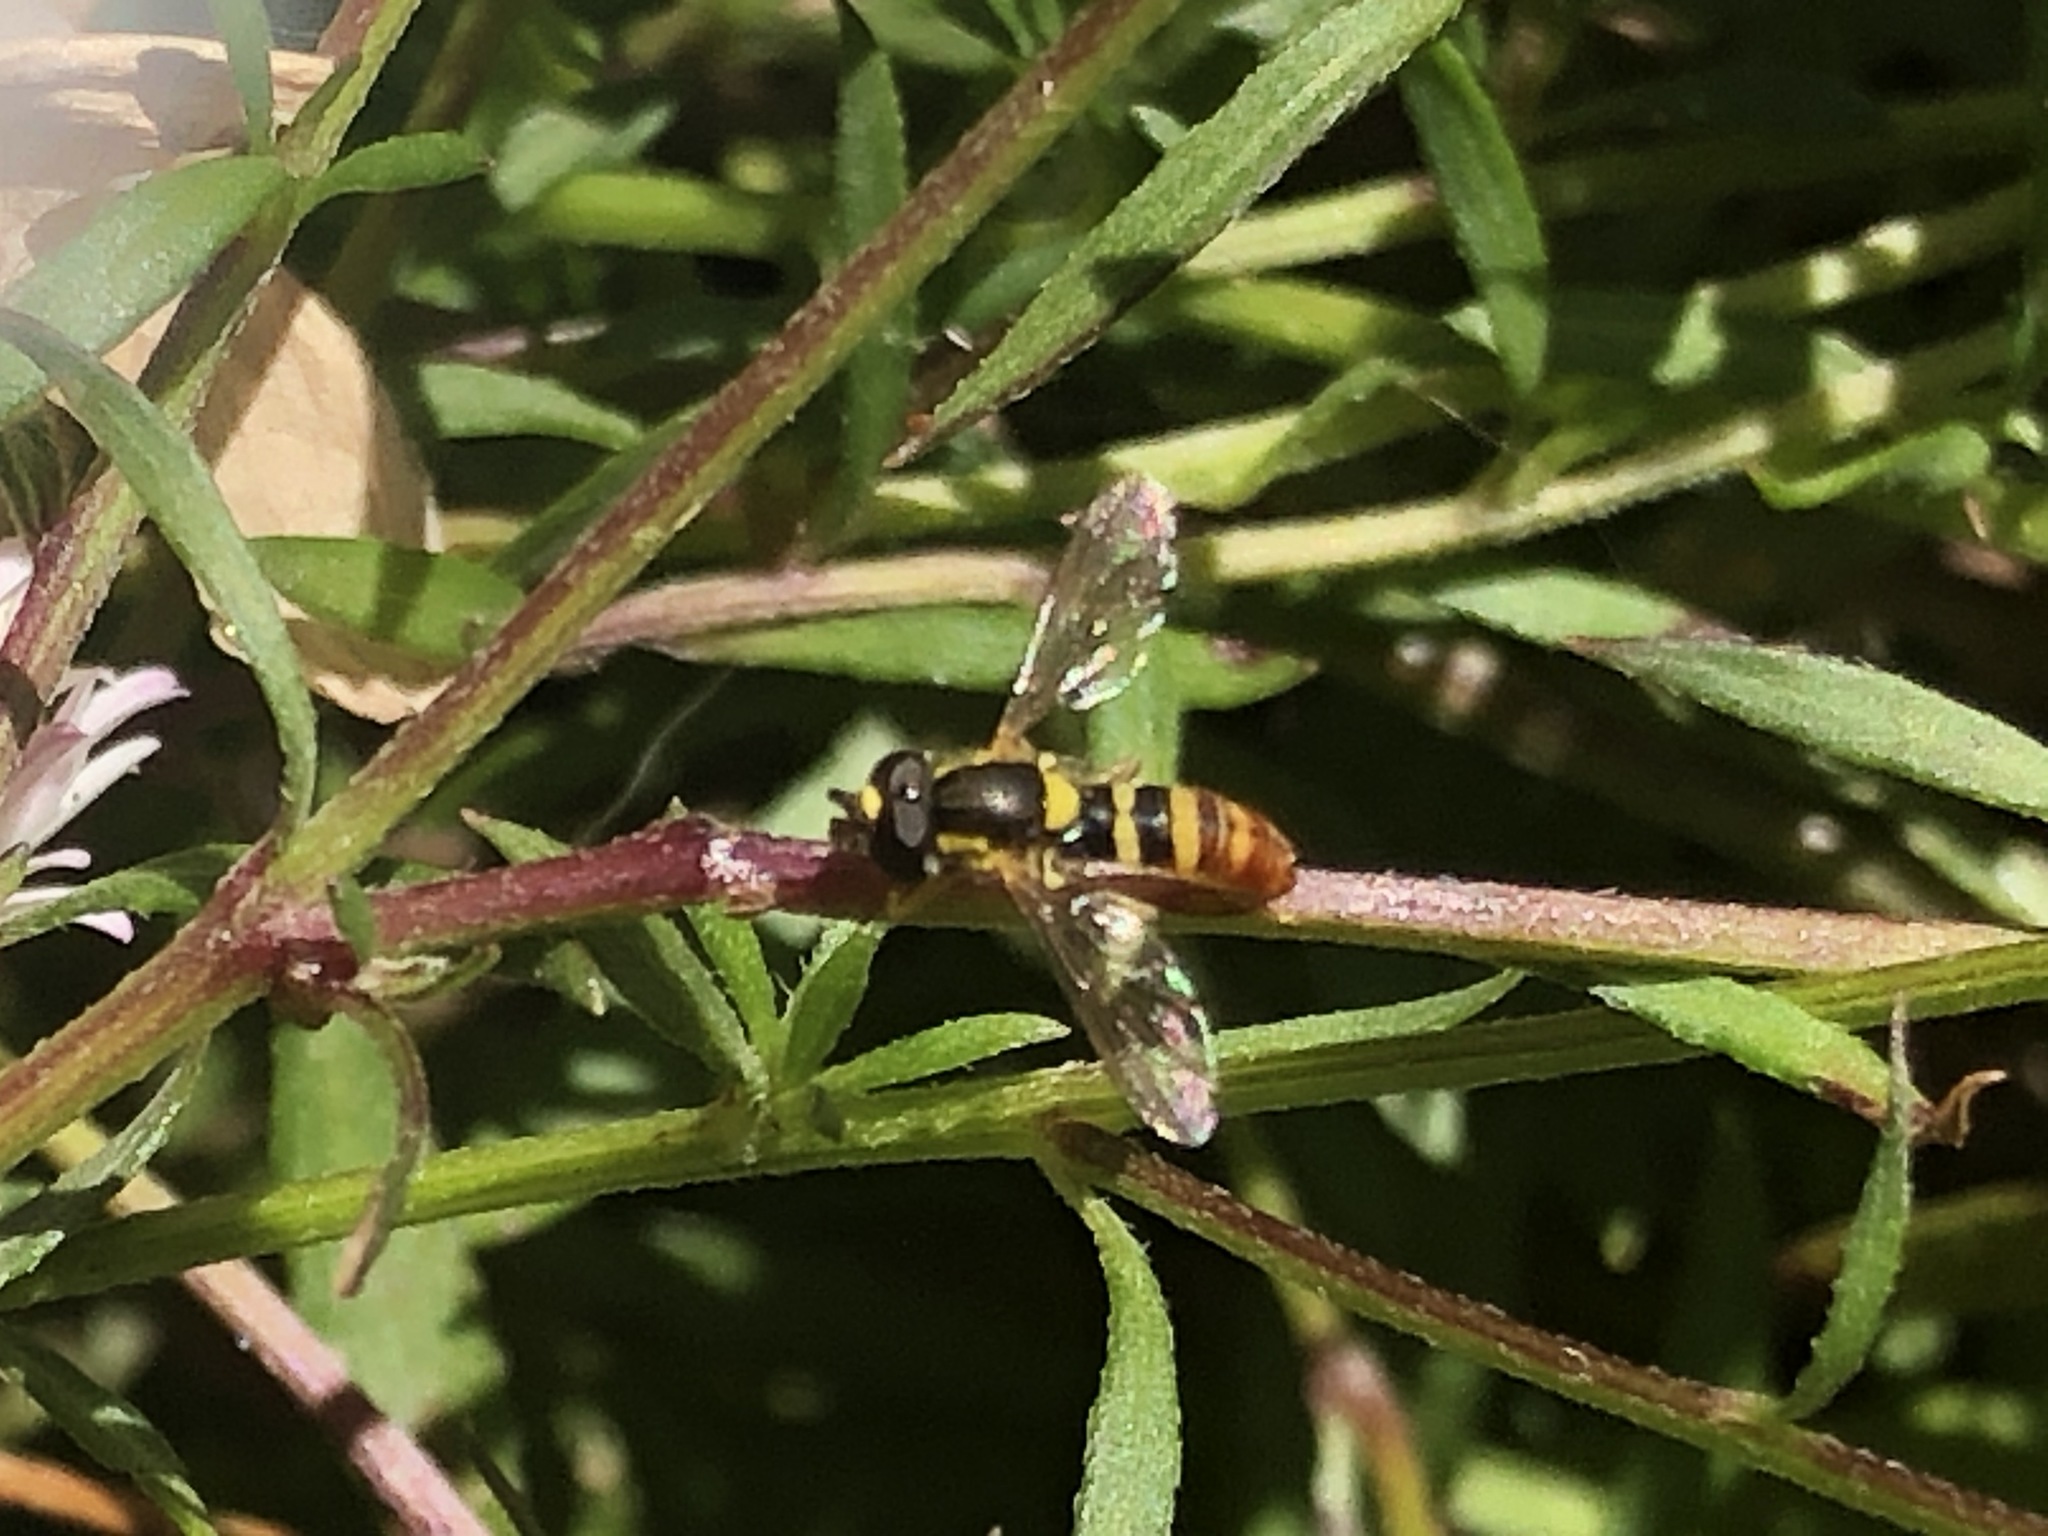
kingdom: Animalia
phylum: Arthropoda
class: Insecta
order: Diptera
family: Syrphidae
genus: Sphaerophoria
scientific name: Sphaerophoria sulphuripes
